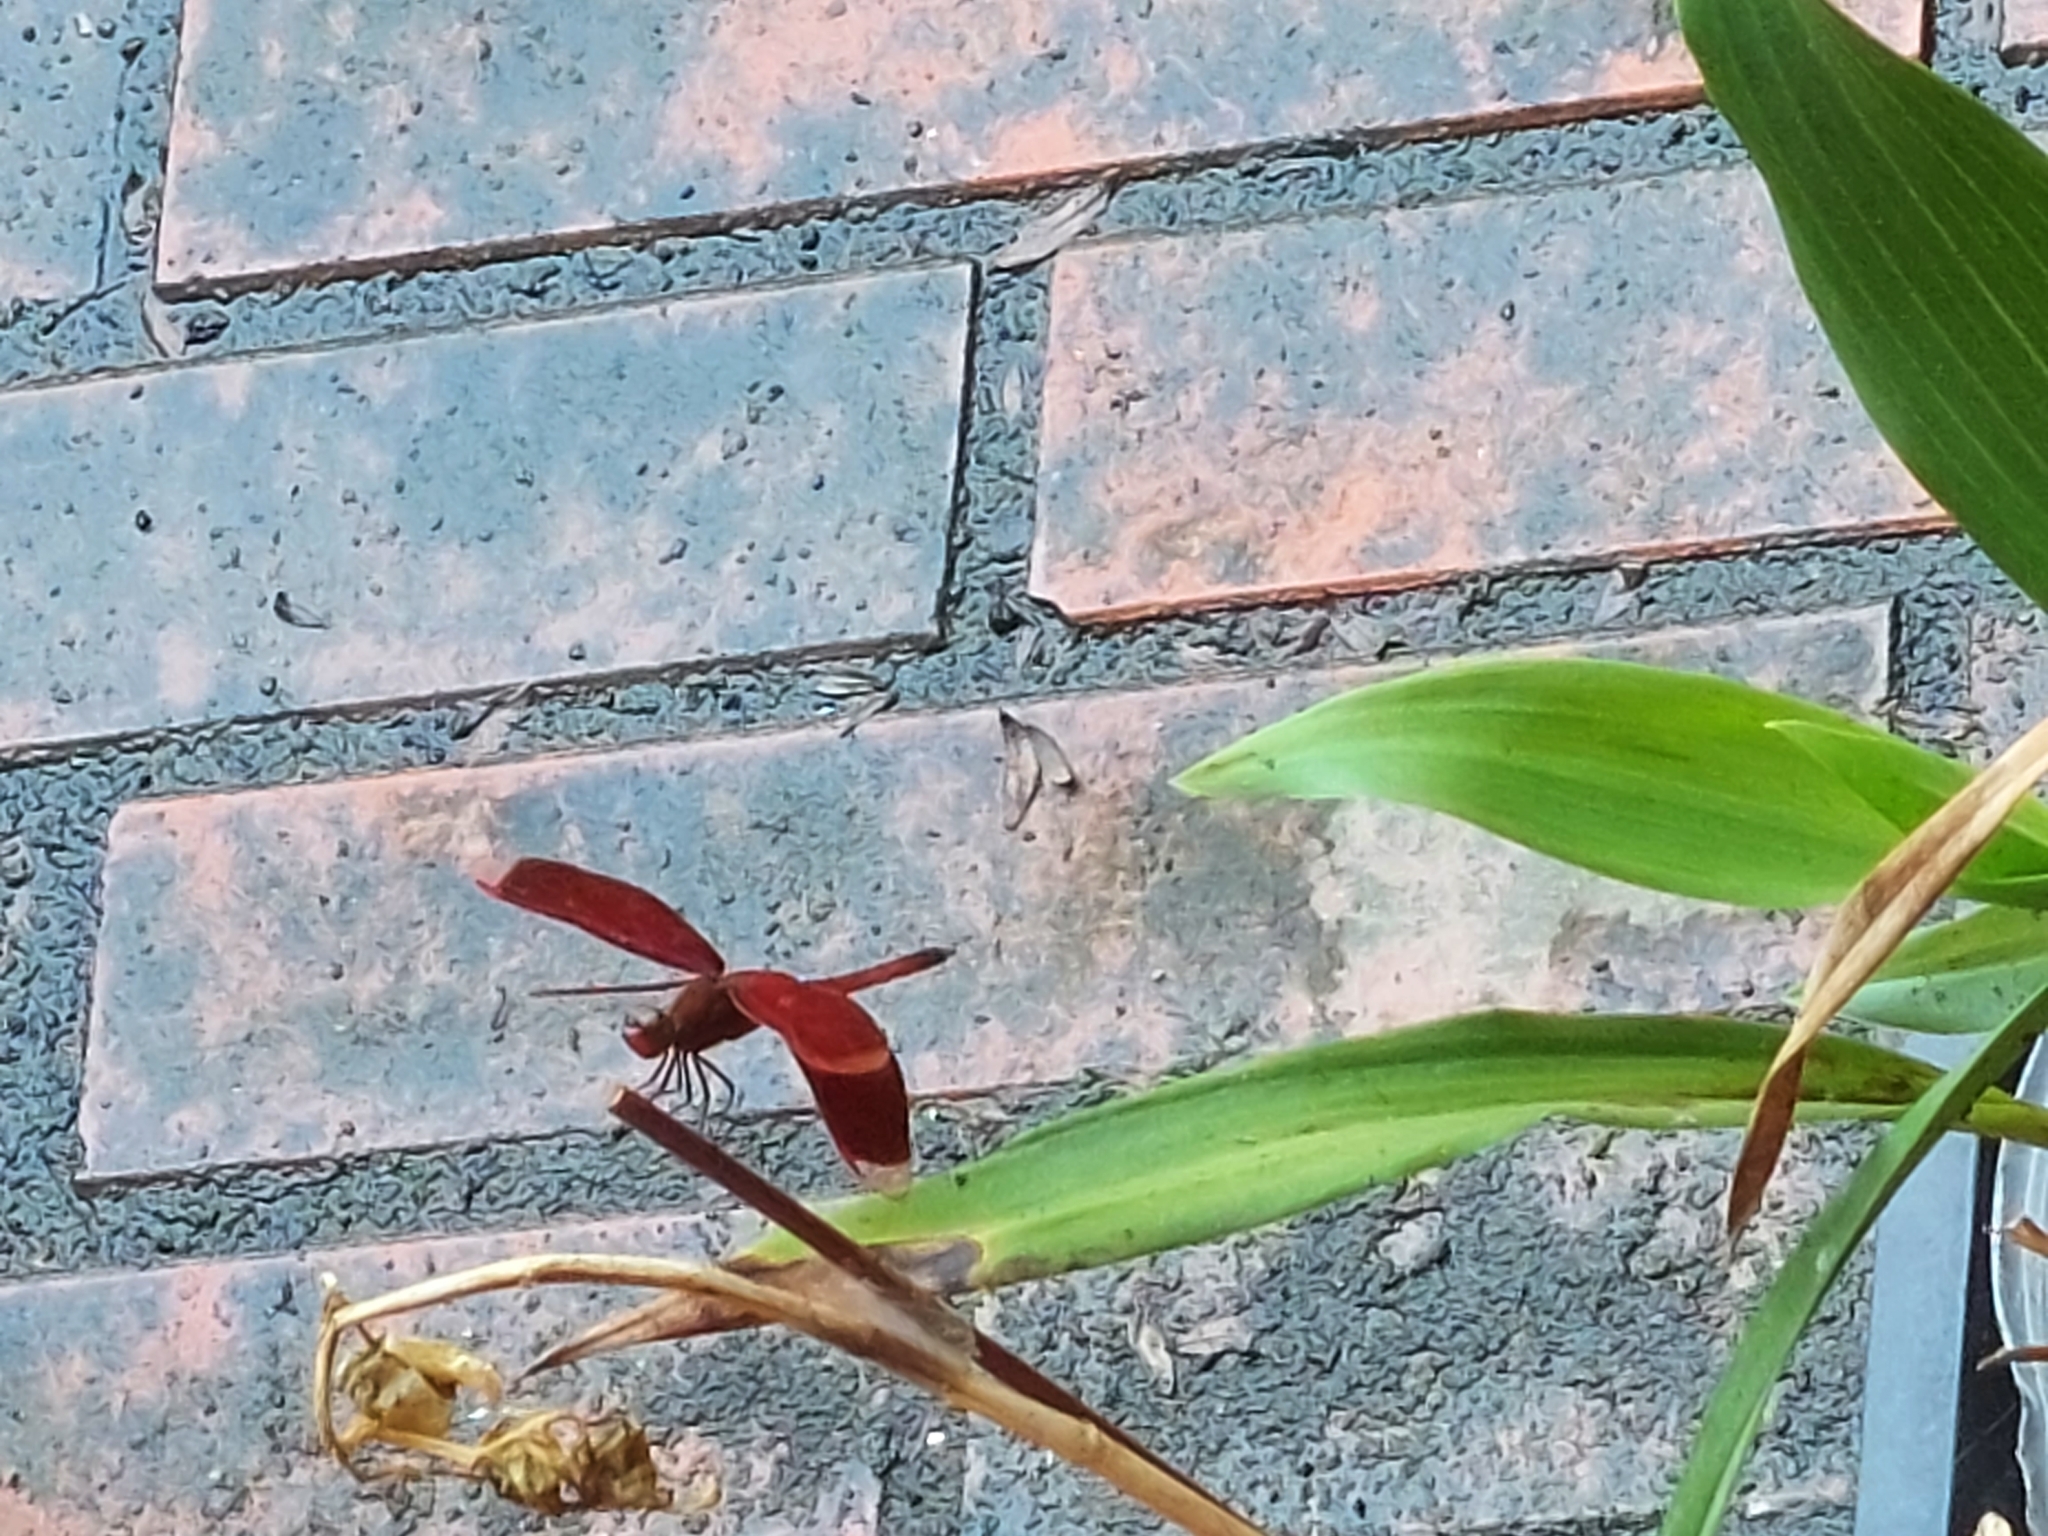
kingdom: Animalia
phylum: Arthropoda
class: Insecta
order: Odonata
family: Libellulidae
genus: Neurothemis
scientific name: Neurothemis taiwanensis
